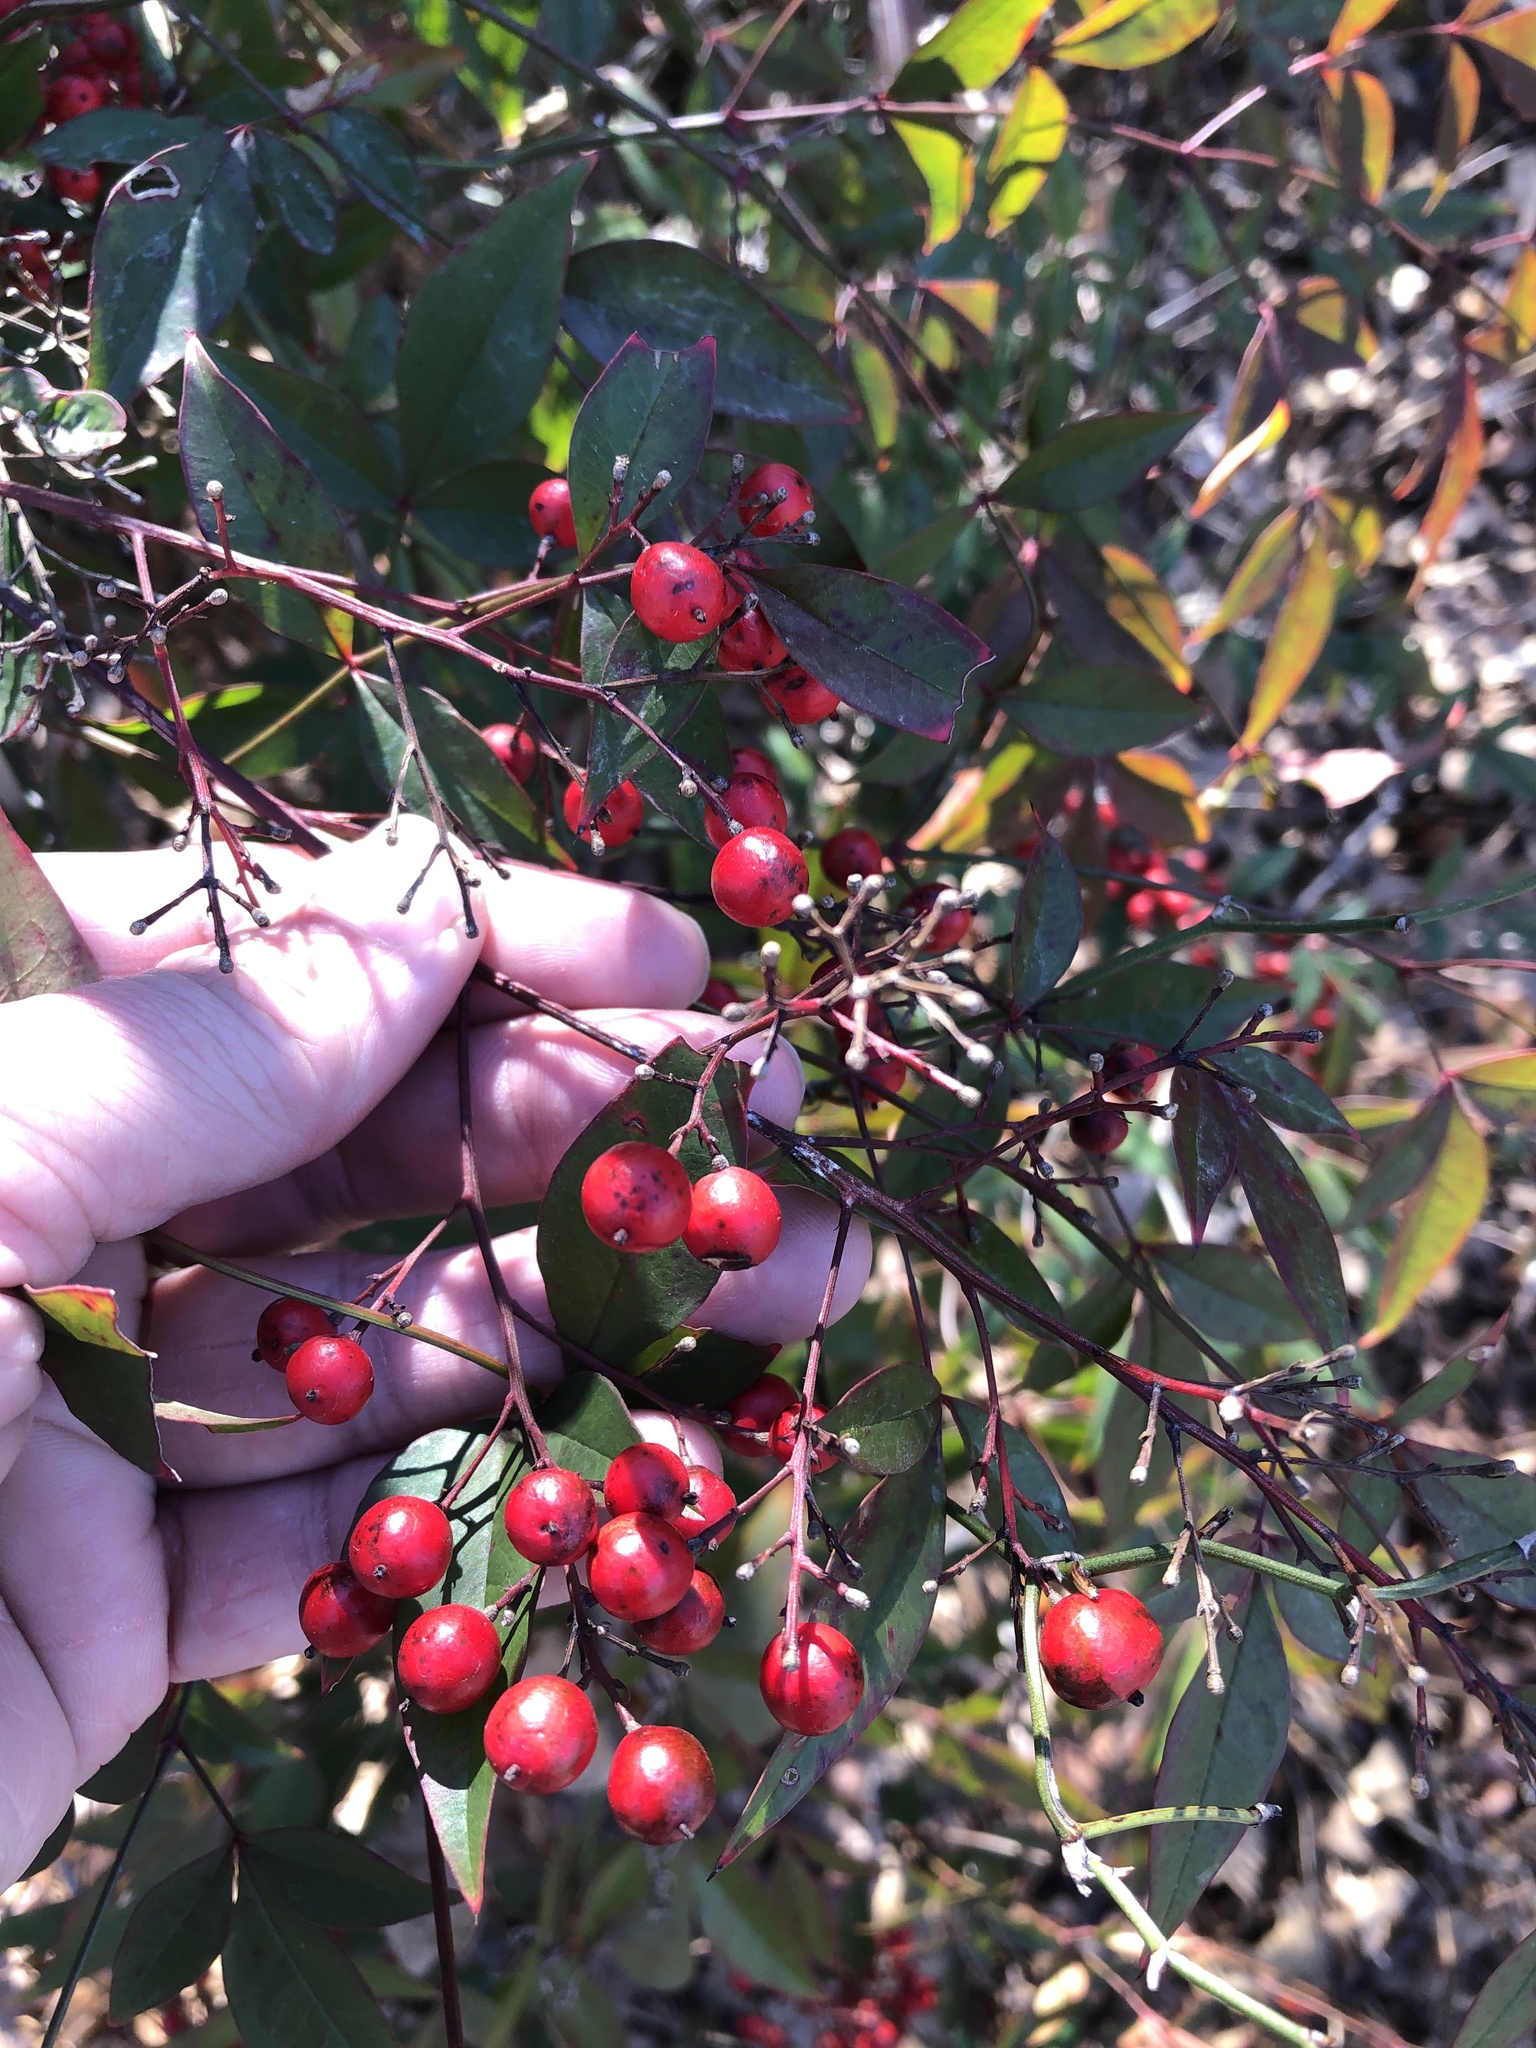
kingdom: Plantae
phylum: Tracheophyta
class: Magnoliopsida
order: Ranunculales
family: Berberidaceae
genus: Nandina
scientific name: Nandina domestica
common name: Sacred bamboo
